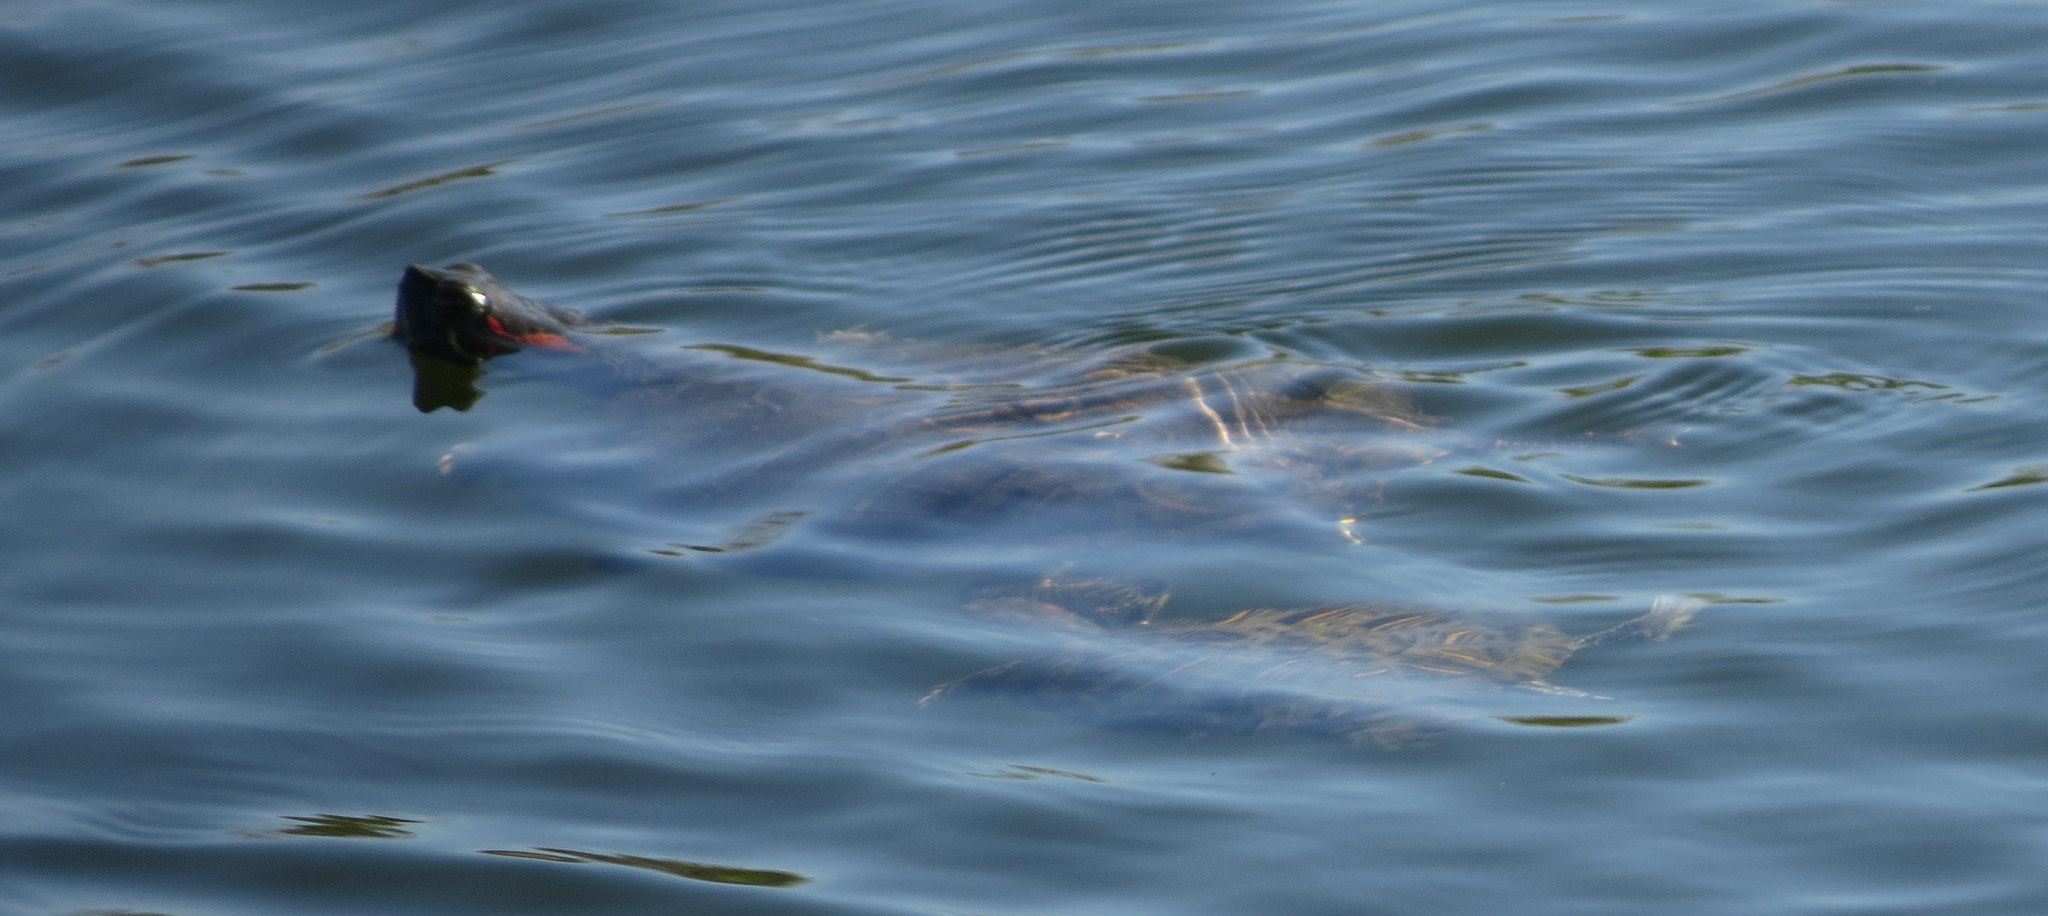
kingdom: Animalia
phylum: Chordata
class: Testudines
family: Emydidae
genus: Trachemys
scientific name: Trachemys scripta
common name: Slider
